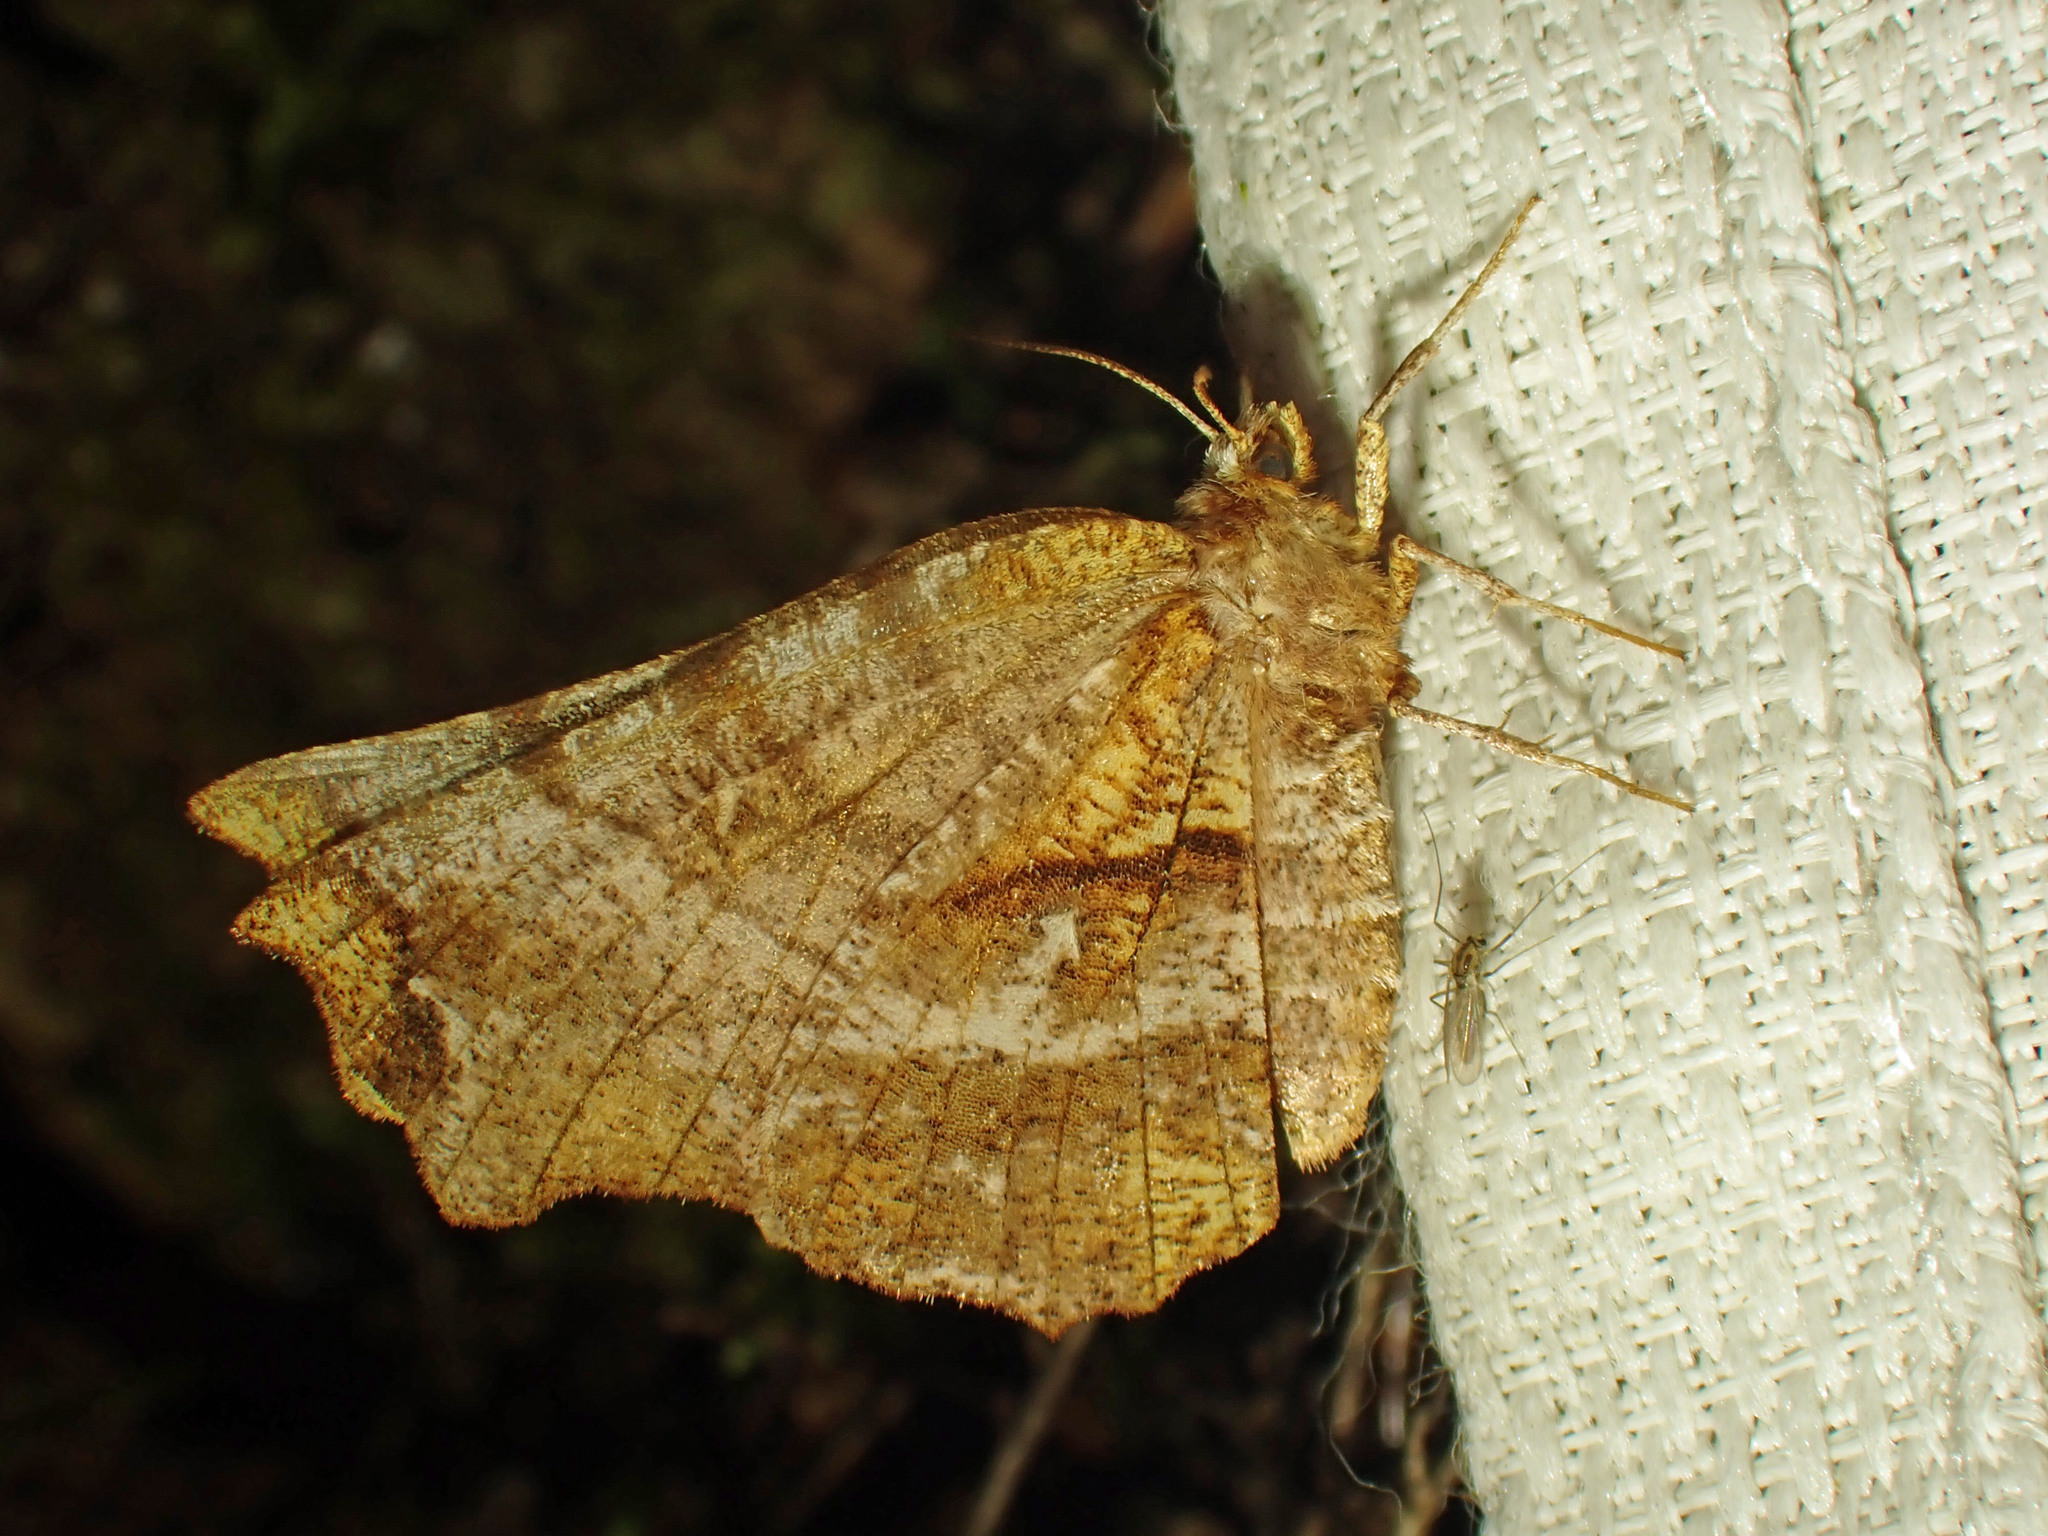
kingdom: Animalia
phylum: Arthropoda
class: Insecta
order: Lepidoptera
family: Geometridae
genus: Selenia
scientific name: Selenia alciphearia
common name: Brown-tipped thorn
